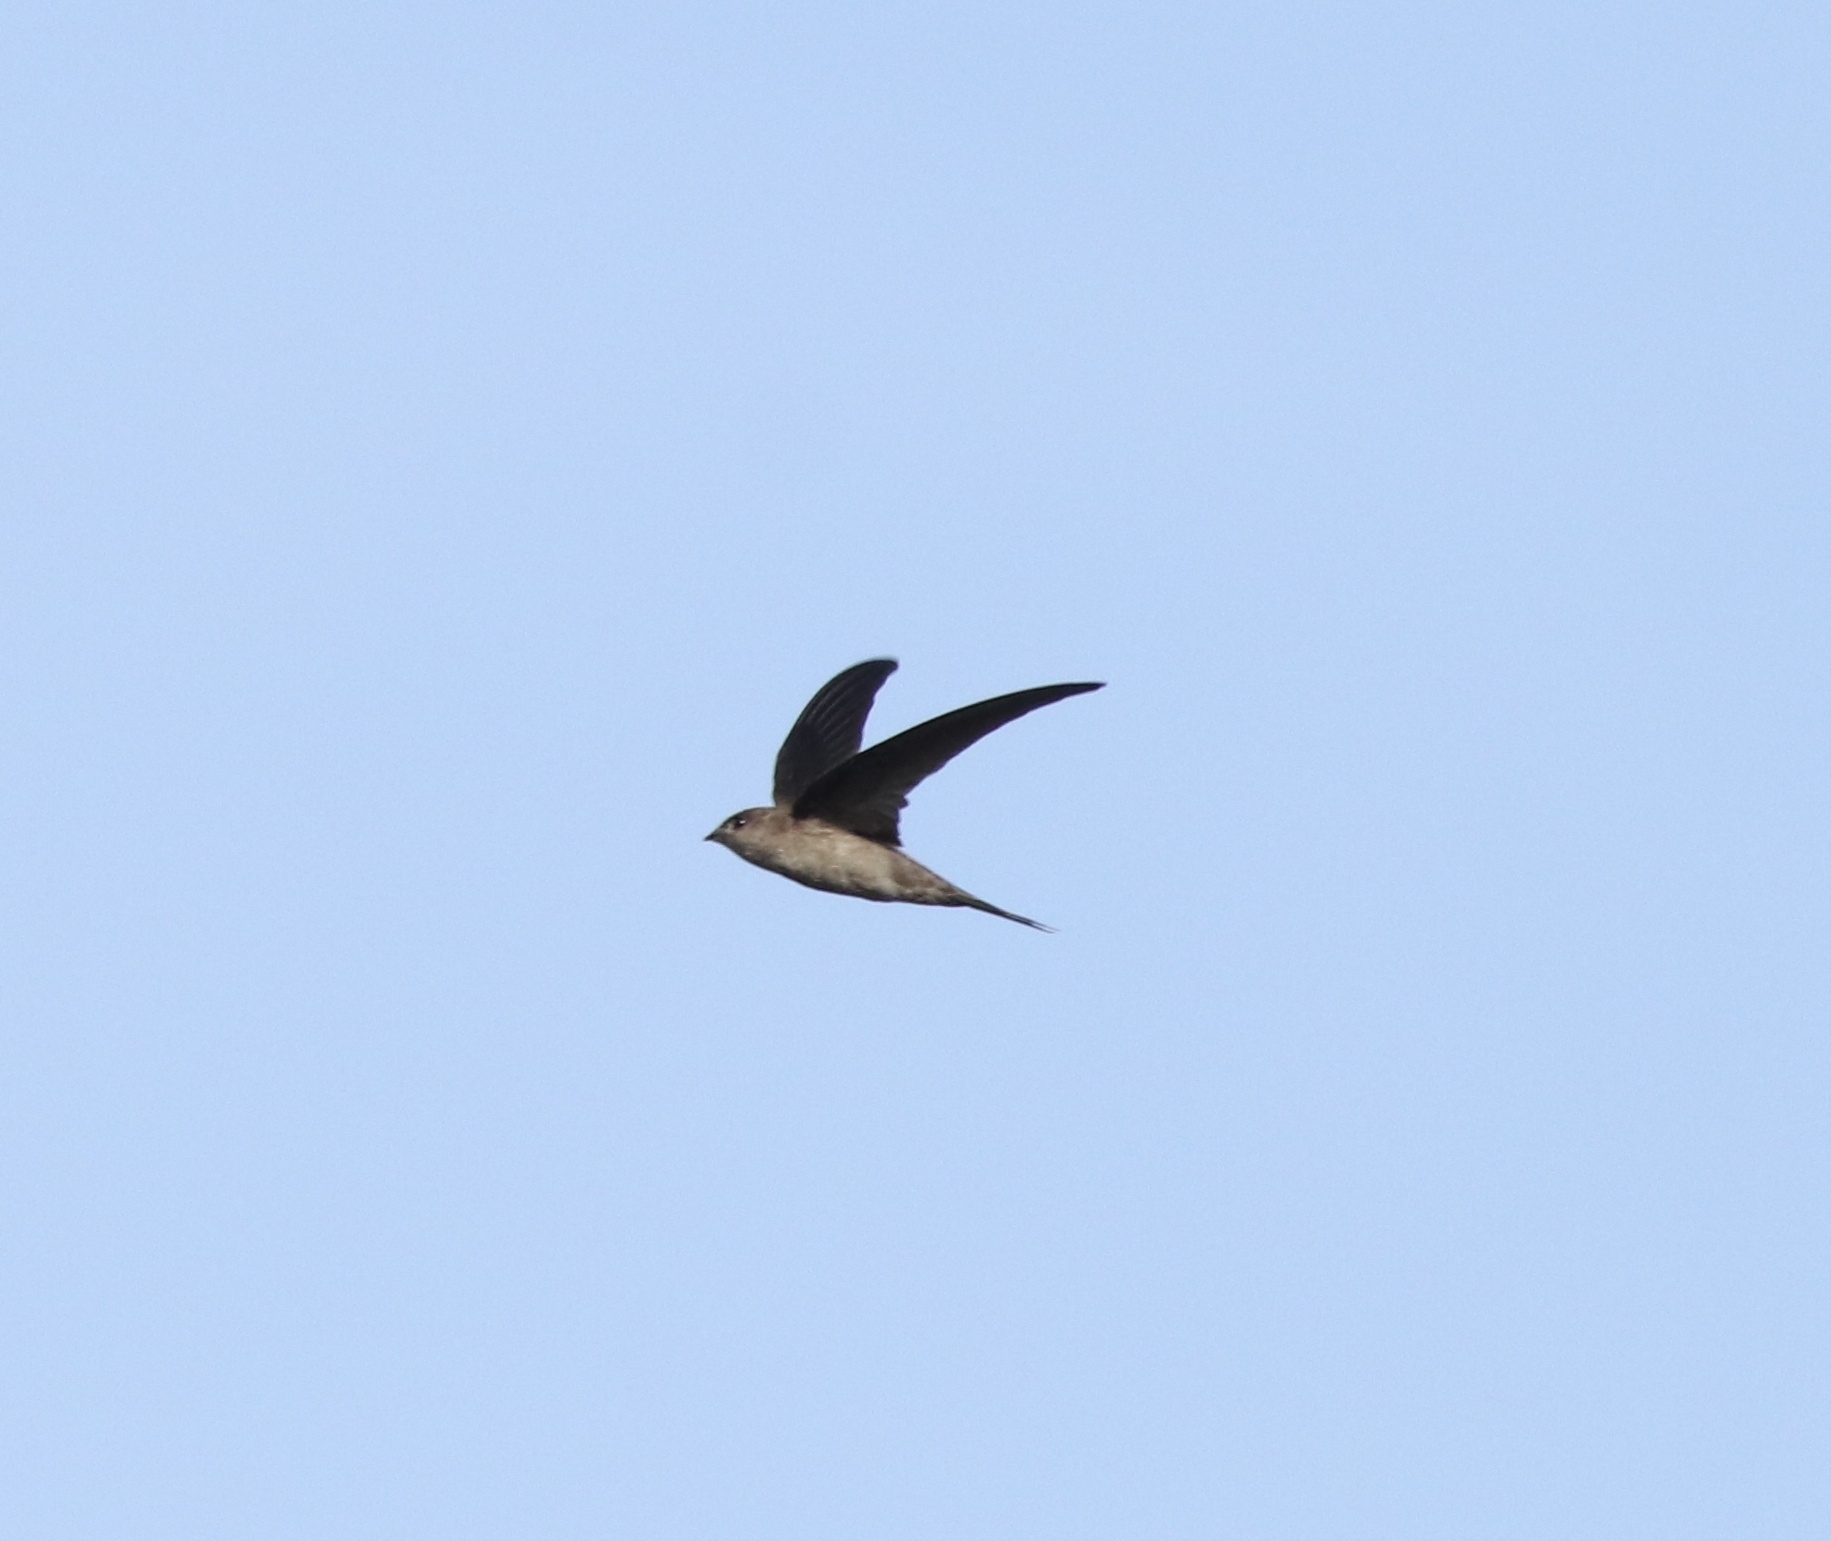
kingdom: Animalia
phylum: Chordata
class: Aves
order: Apodiformes
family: Apodidae
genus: Cypsiurus
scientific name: Cypsiurus balasiensis
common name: Asian palm swift
